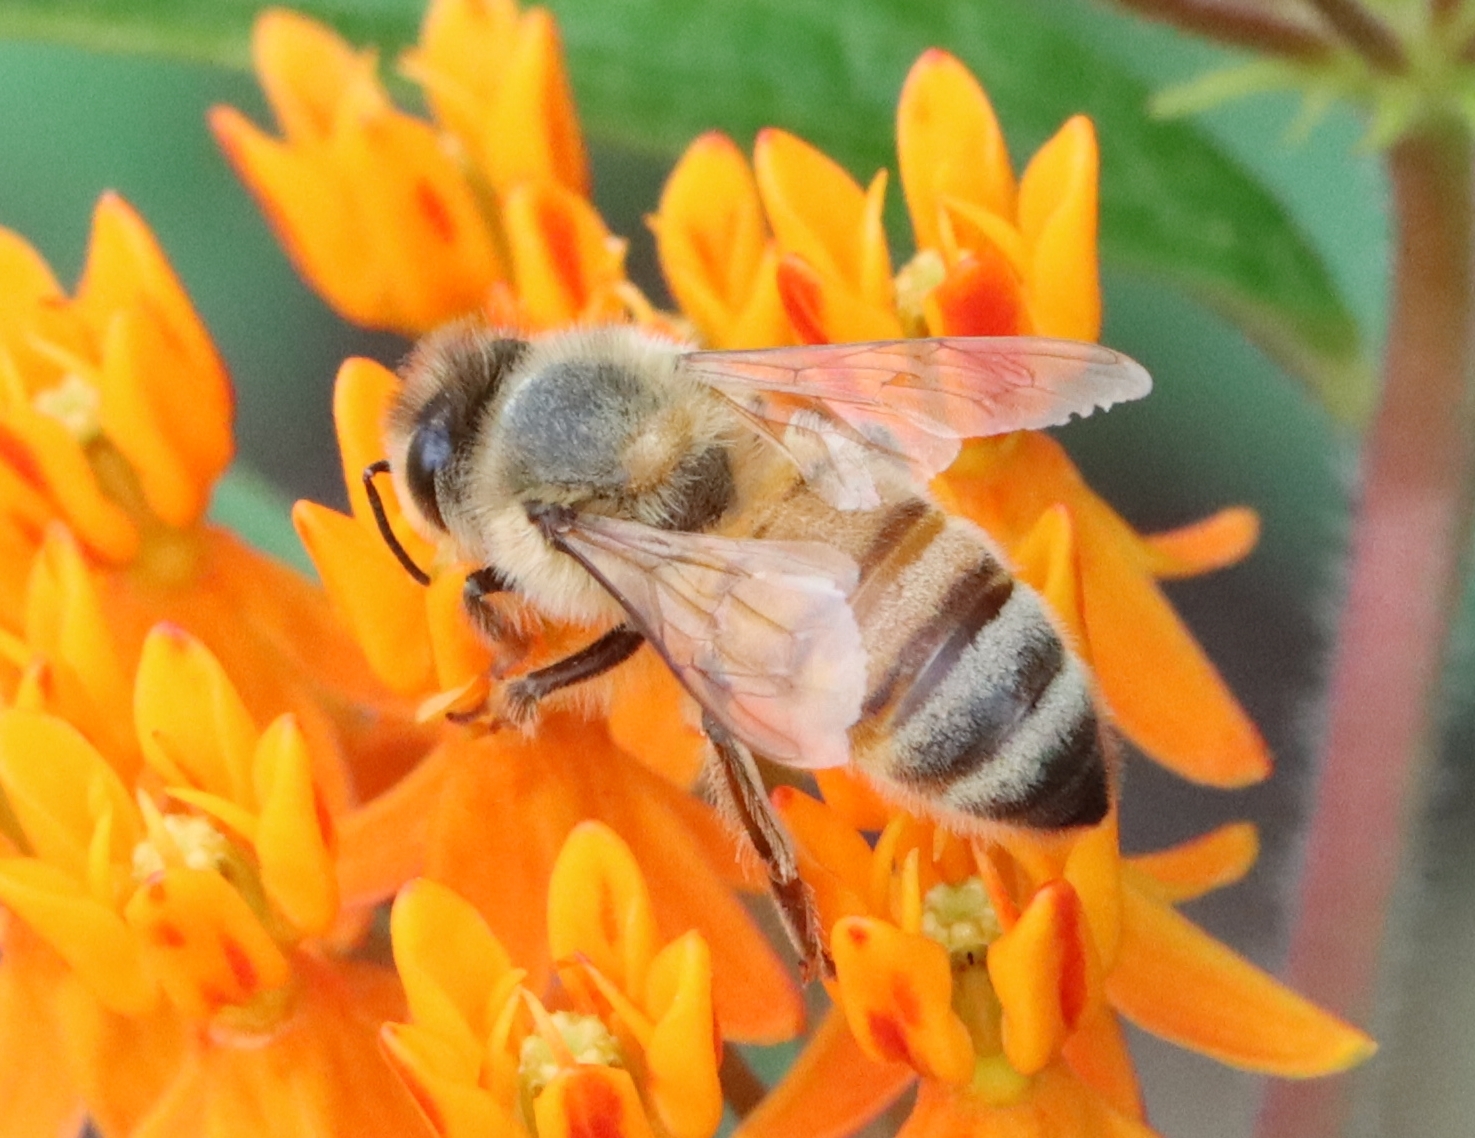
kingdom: Animalia
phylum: Arthropoda
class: Insecta
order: Hymenoptera
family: Apidae
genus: Apis
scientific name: Apis mellifera
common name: Honey bee
